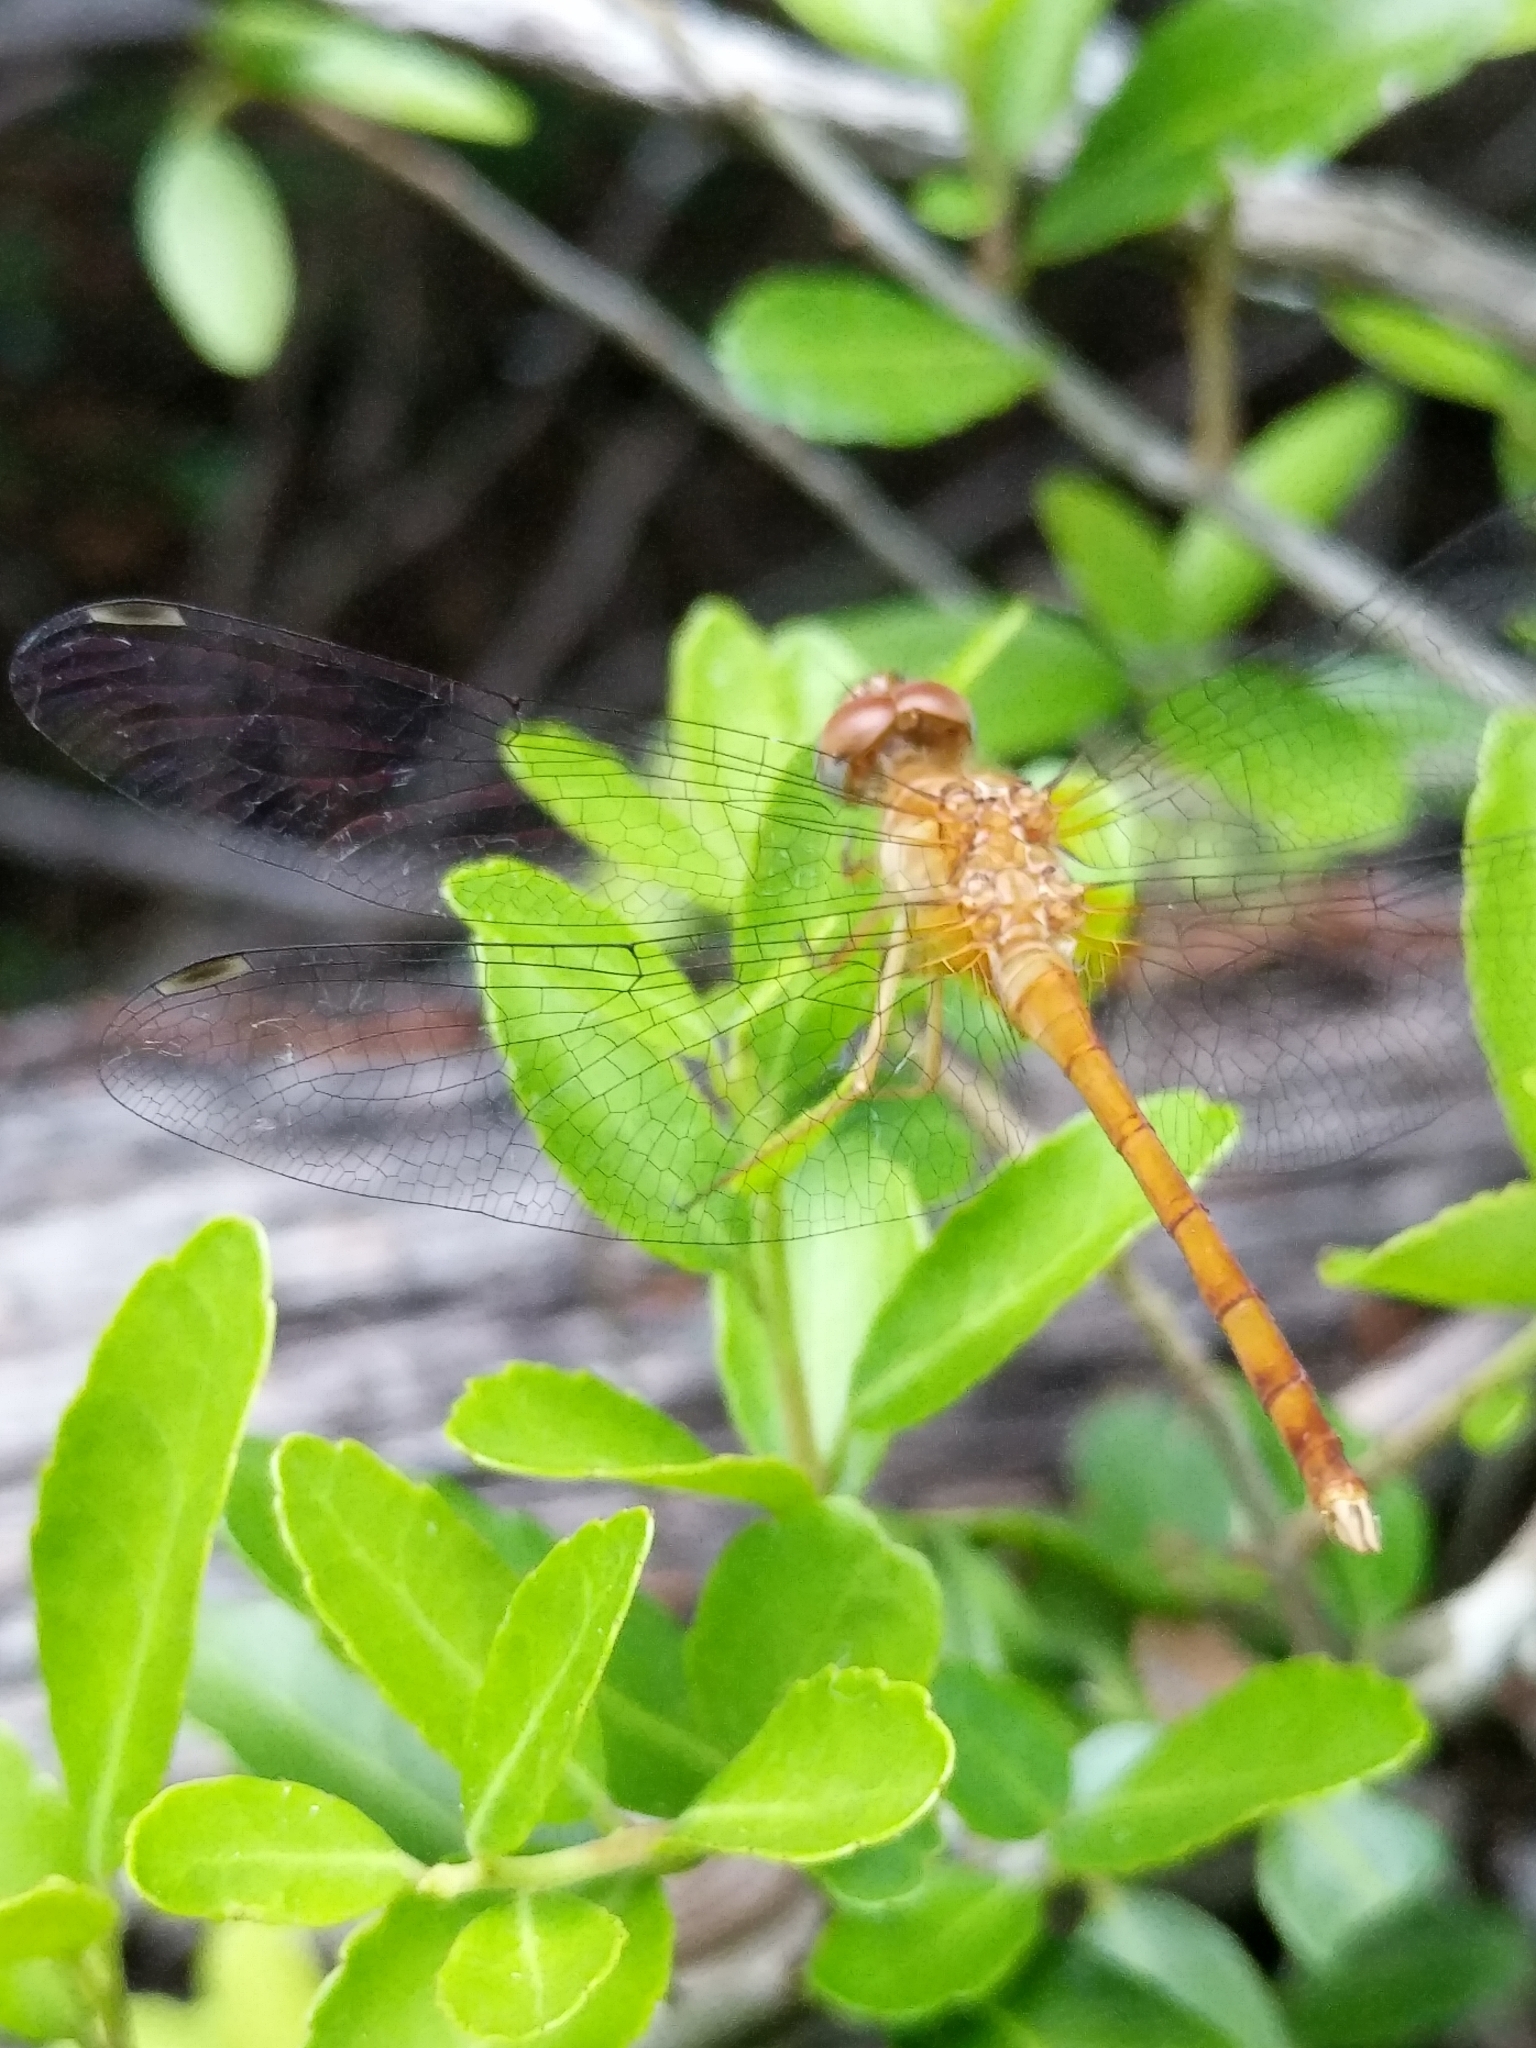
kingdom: Animalia
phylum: Arthropoda
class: Insecta
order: Odonata
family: Libellulidae
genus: Sympetrum
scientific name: Sympetrum vicinum
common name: Autumn meadowhawk
